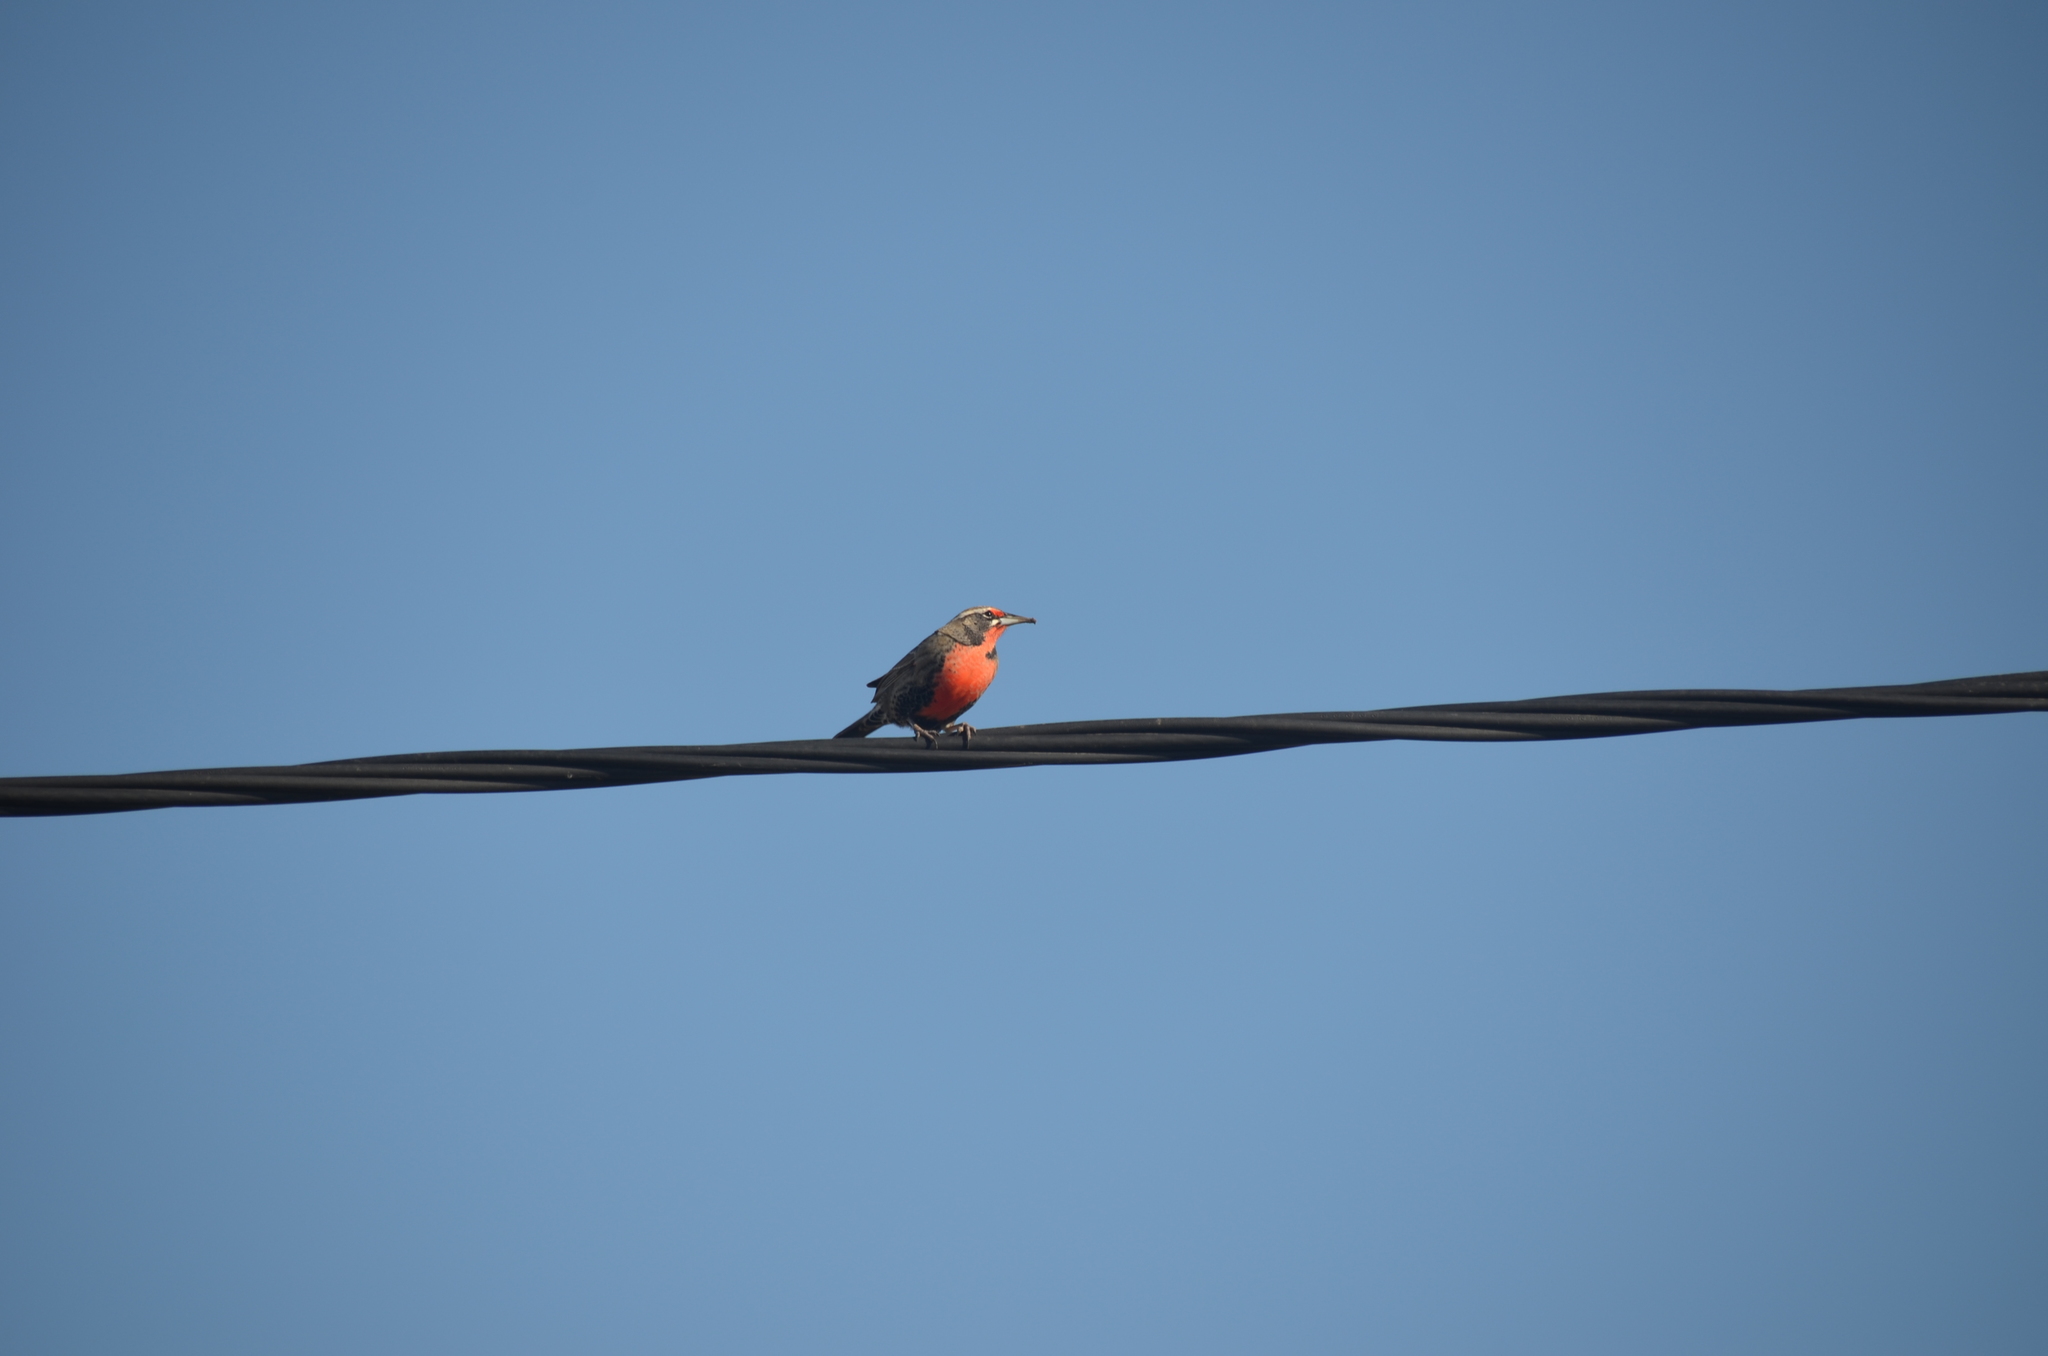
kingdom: Animalia
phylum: Chordata
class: Aves
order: Passeriformes
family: Icteridae
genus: Sturnella
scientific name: Sturnella loyca
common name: Long-tailed meadowlark
